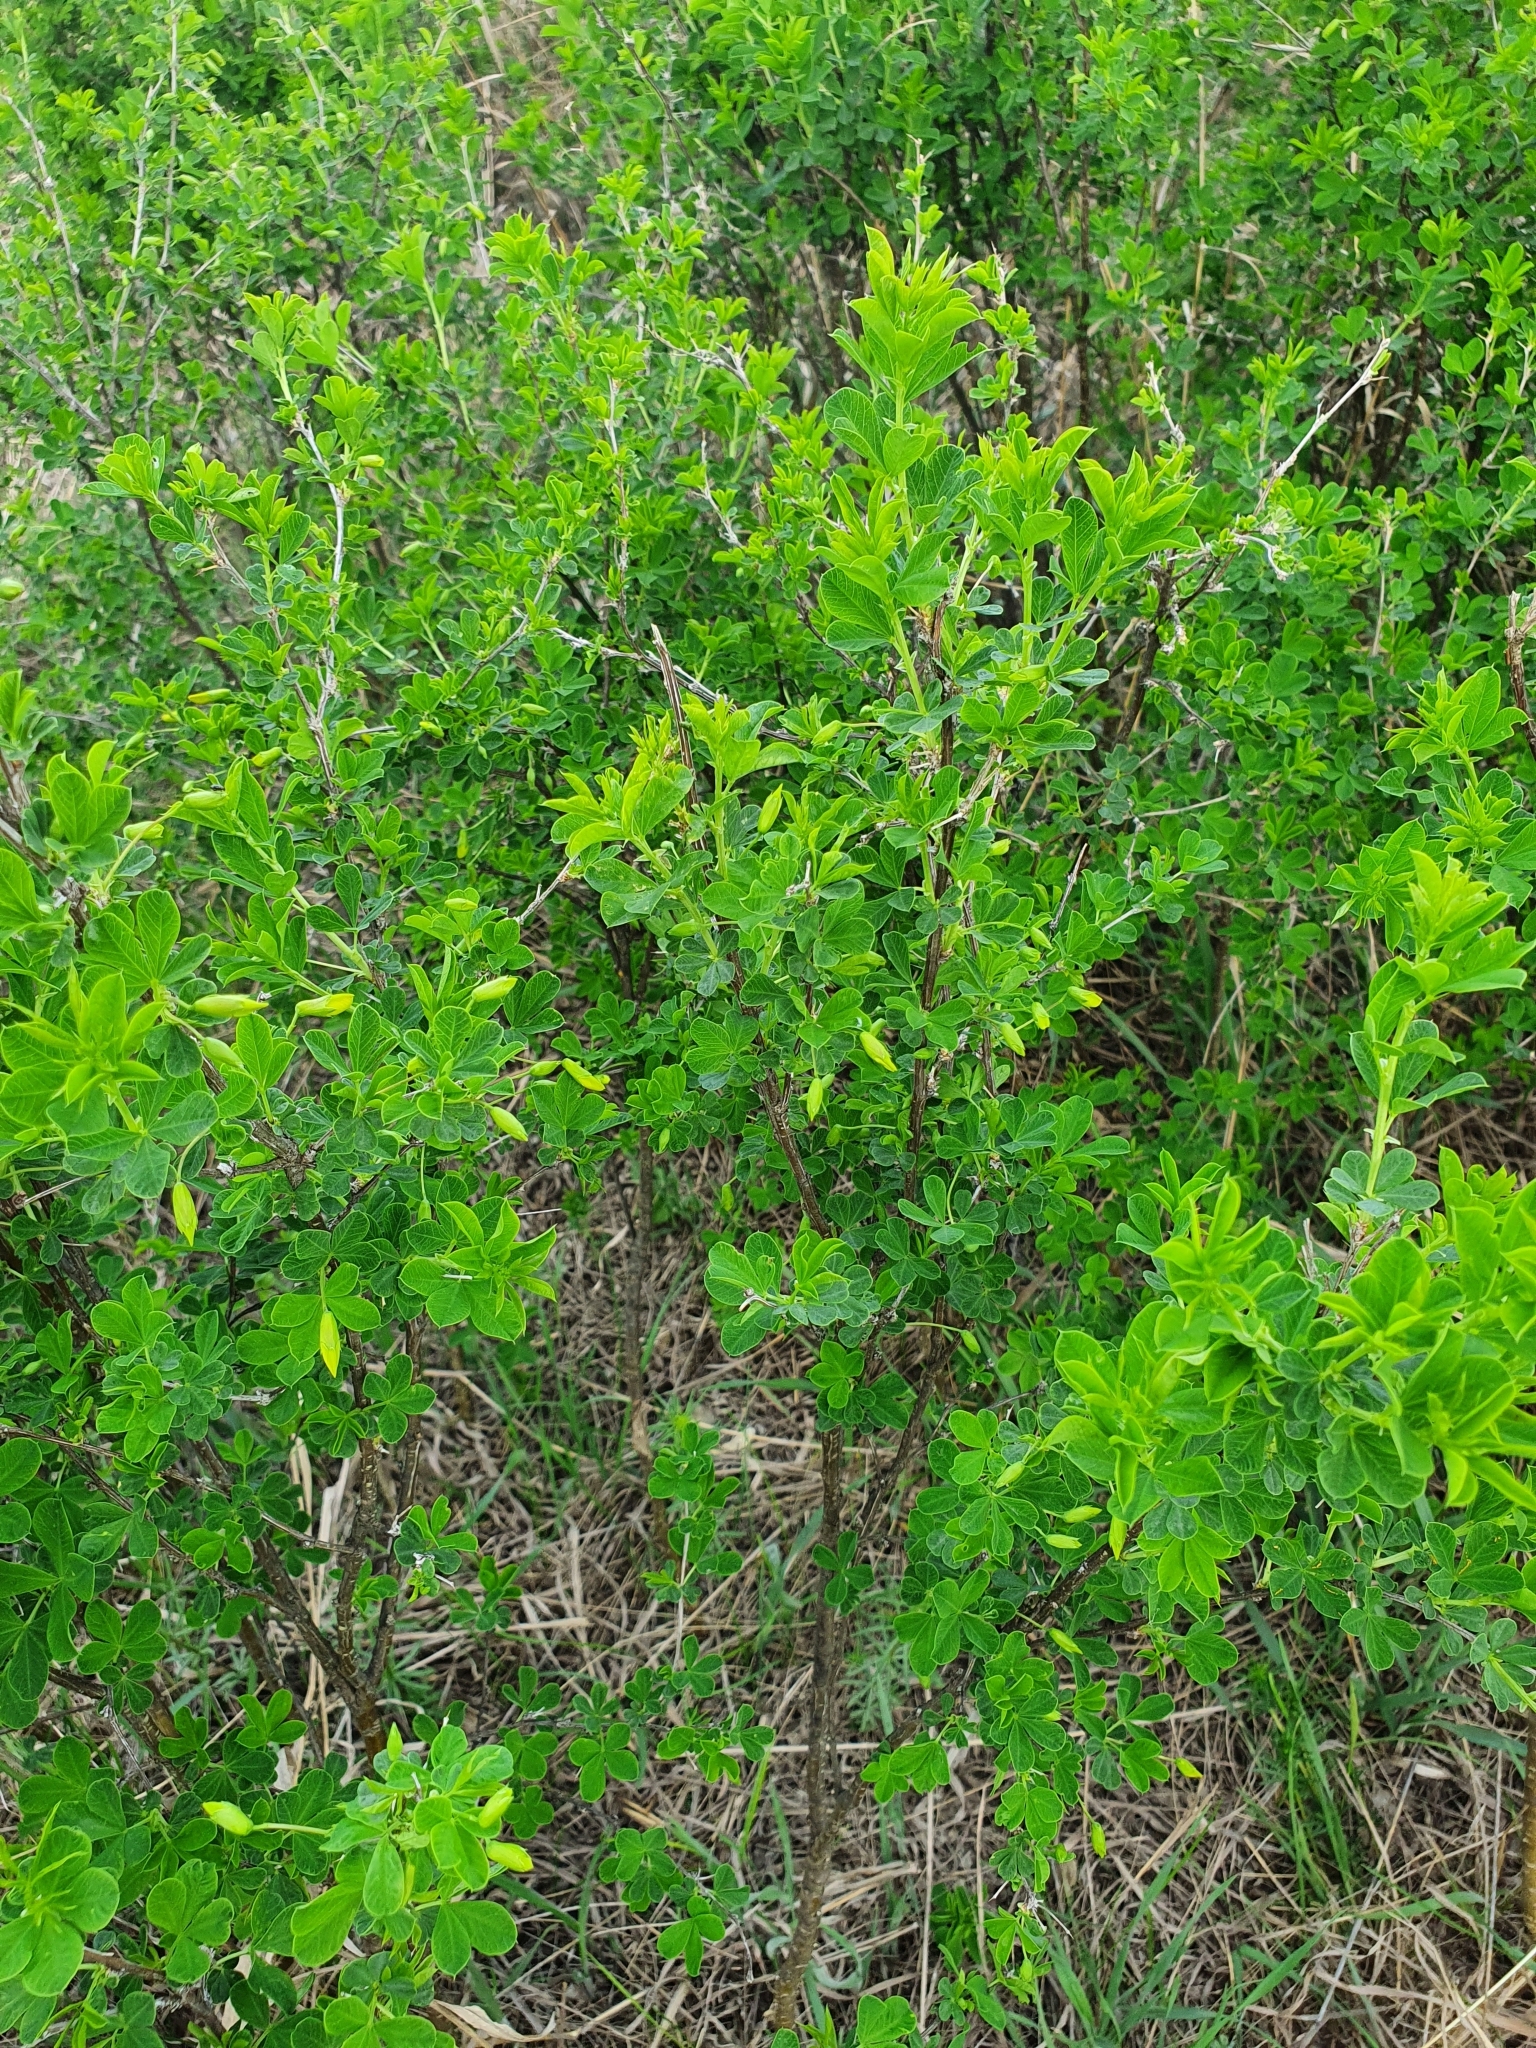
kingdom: Plantae
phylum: Tracheophyta
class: Magnoliopsida
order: Fabales
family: Fabaceae
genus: Caragana
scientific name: Caragana frutex
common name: Russian peashrub
